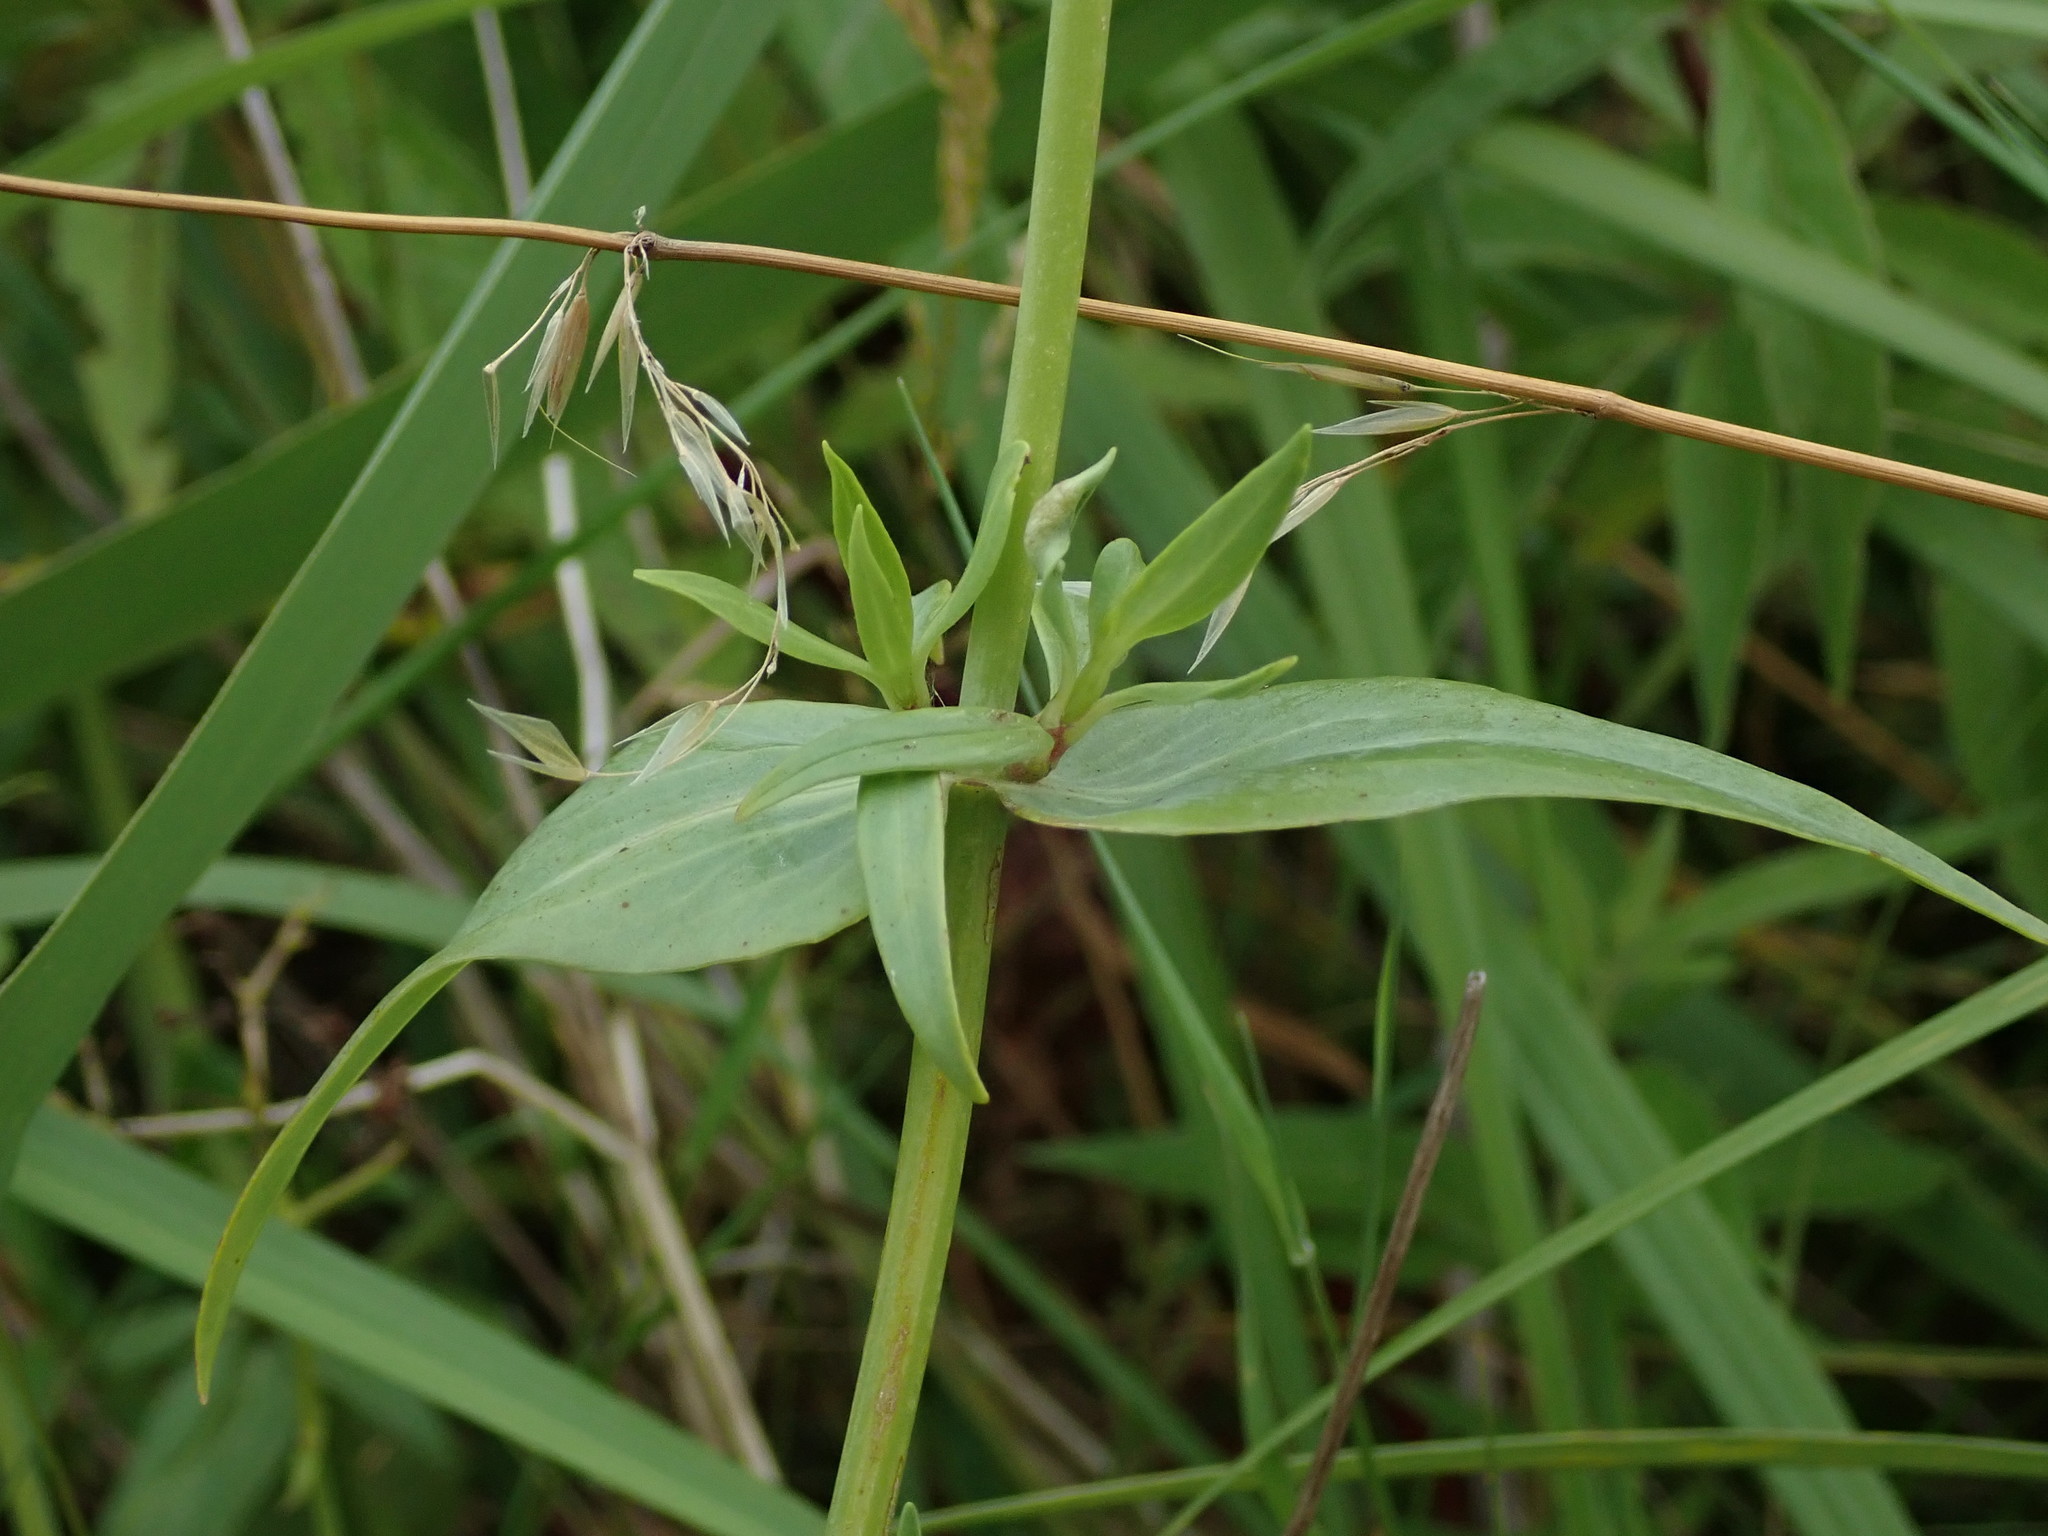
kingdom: Plantae
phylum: Tracheophyta
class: Magnoliopsida
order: Dipsacales
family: Caprifoliaceae
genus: Centranthus
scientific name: Centranthus ruber
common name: Red valerian
